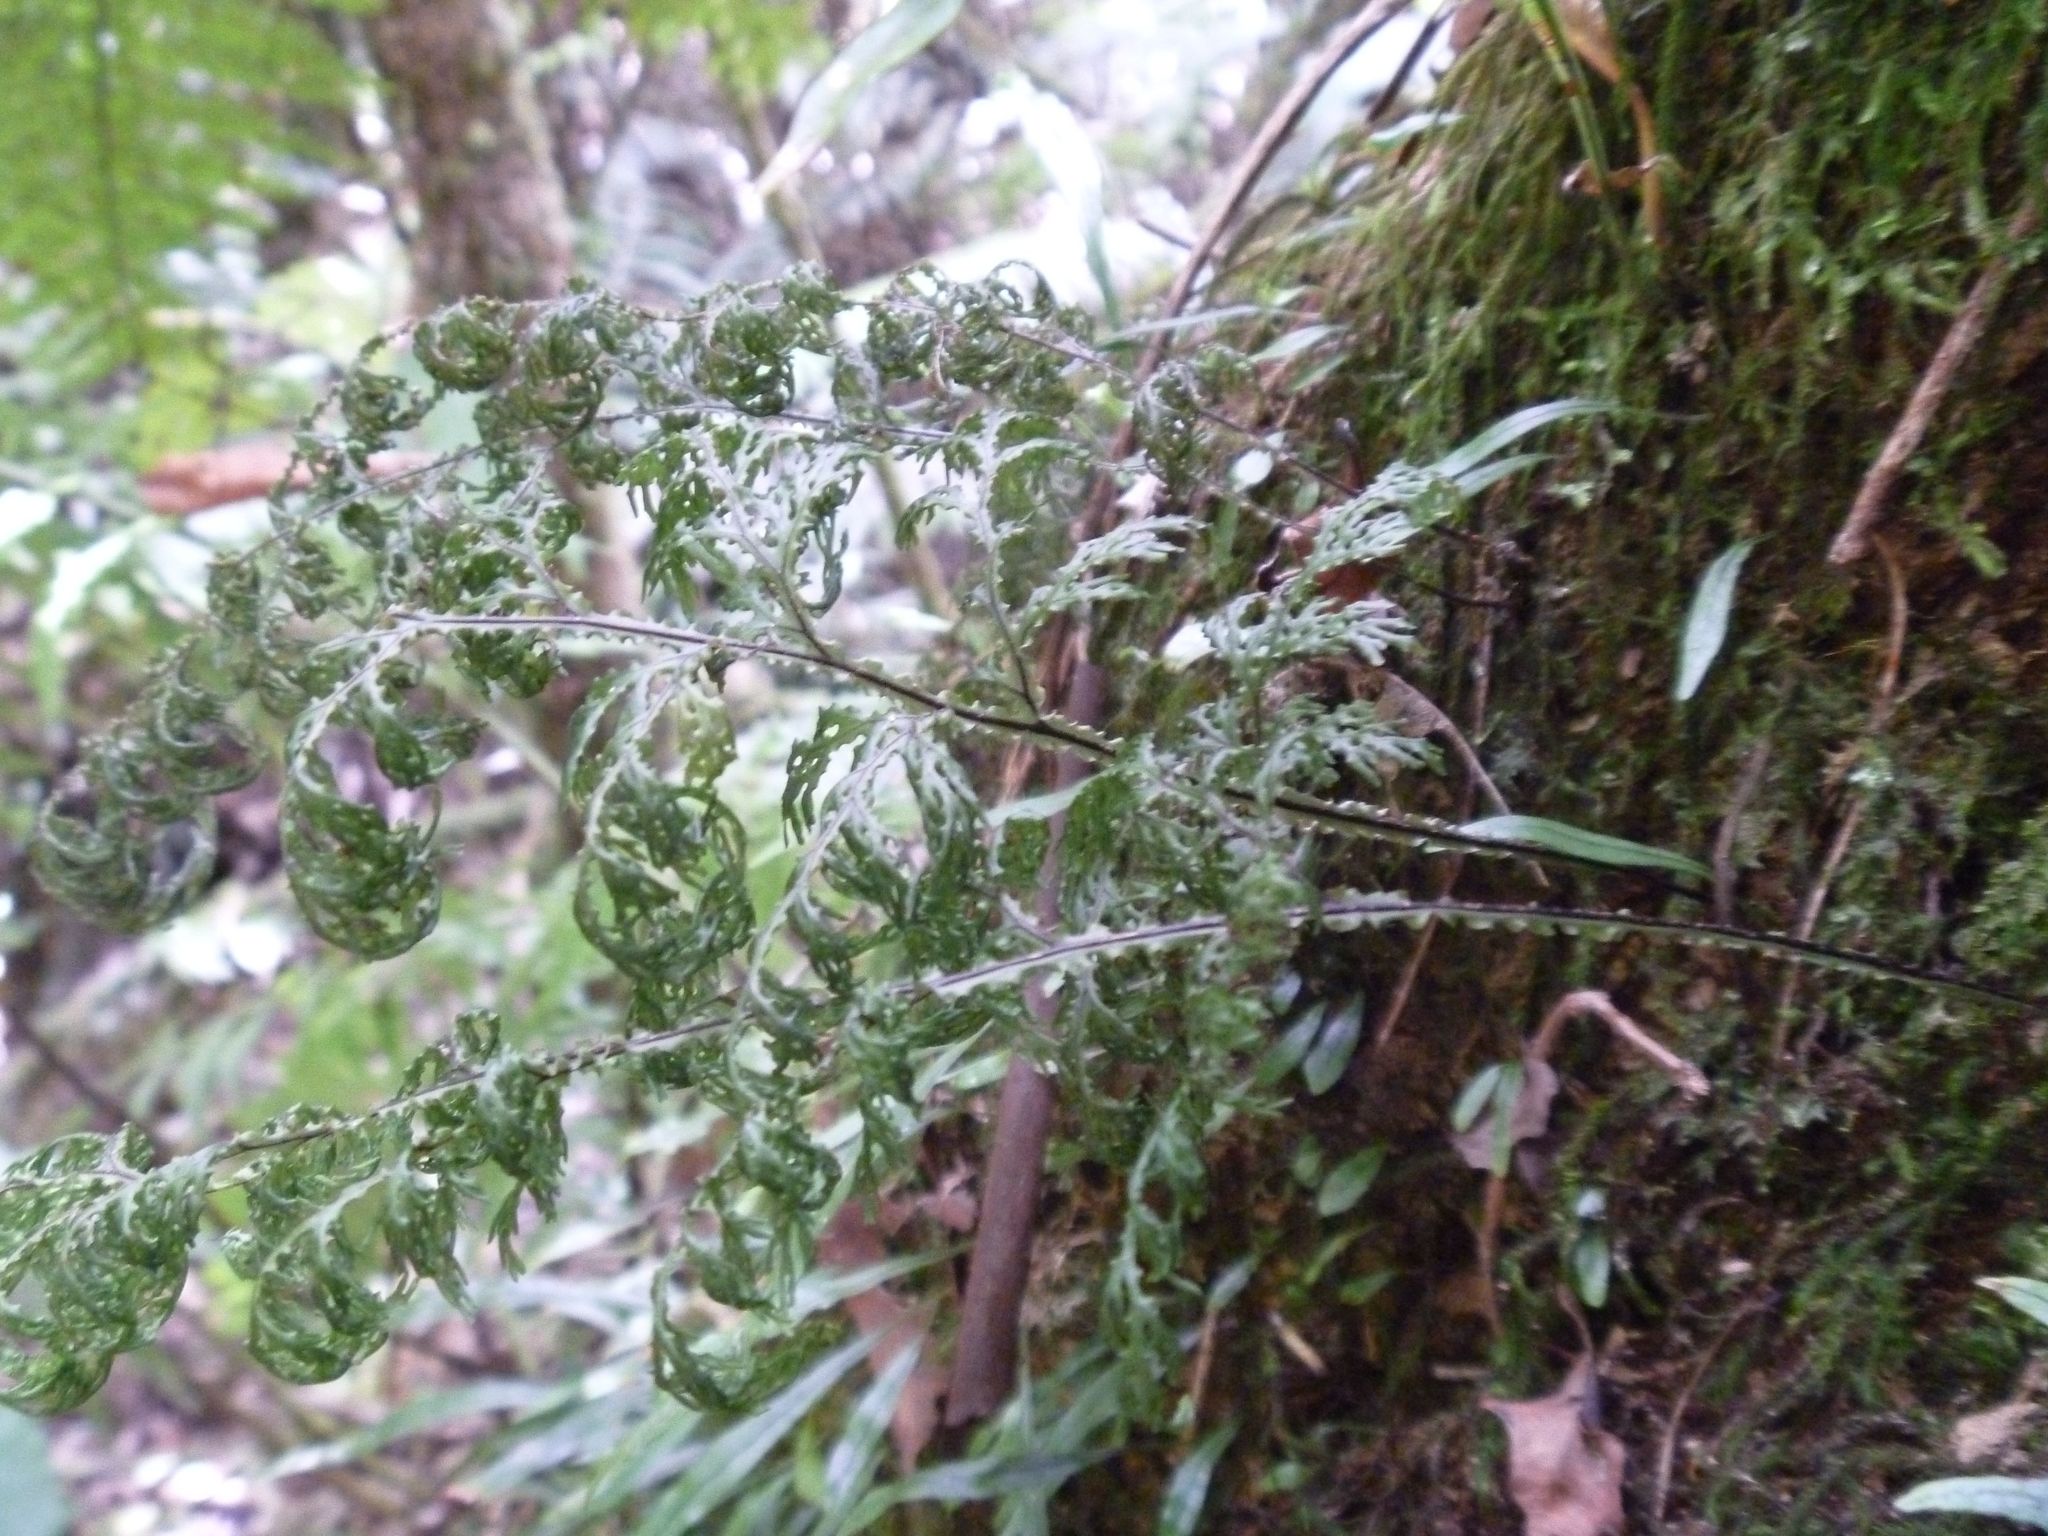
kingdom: Plantae
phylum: Tracheophyta
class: Polypodiopsida
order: Hymenophyllales
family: Hymenophyllaceae
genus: Hymenophyllum
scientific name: Hymenophyllum flexuosum
